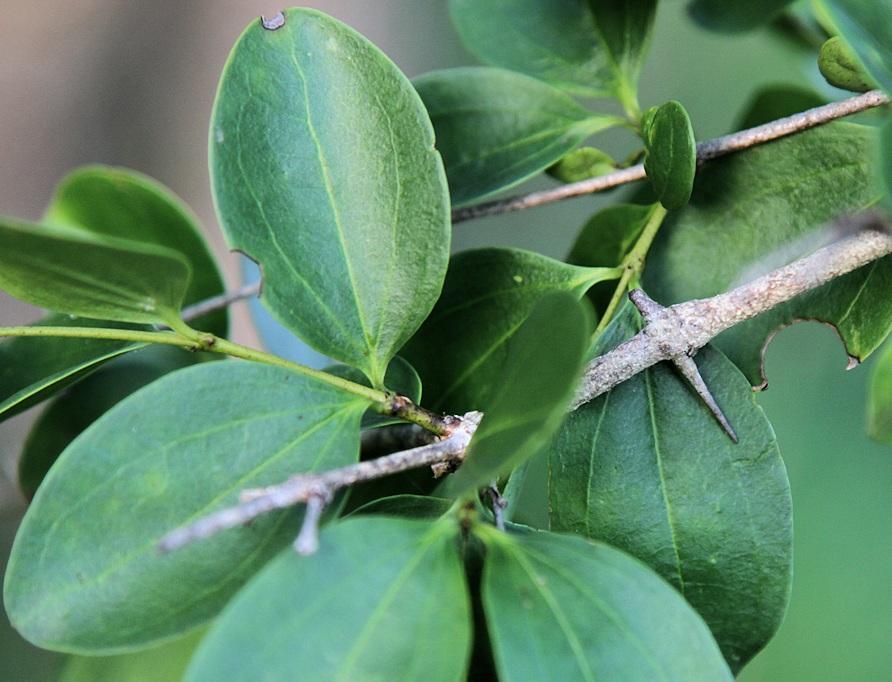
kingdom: Plantae
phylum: Tracheophyta
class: Magnoliopsida
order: Gentianales
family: Loganiaceae
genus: Strychnos
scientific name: Strychnos spinosa
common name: Natal orange
